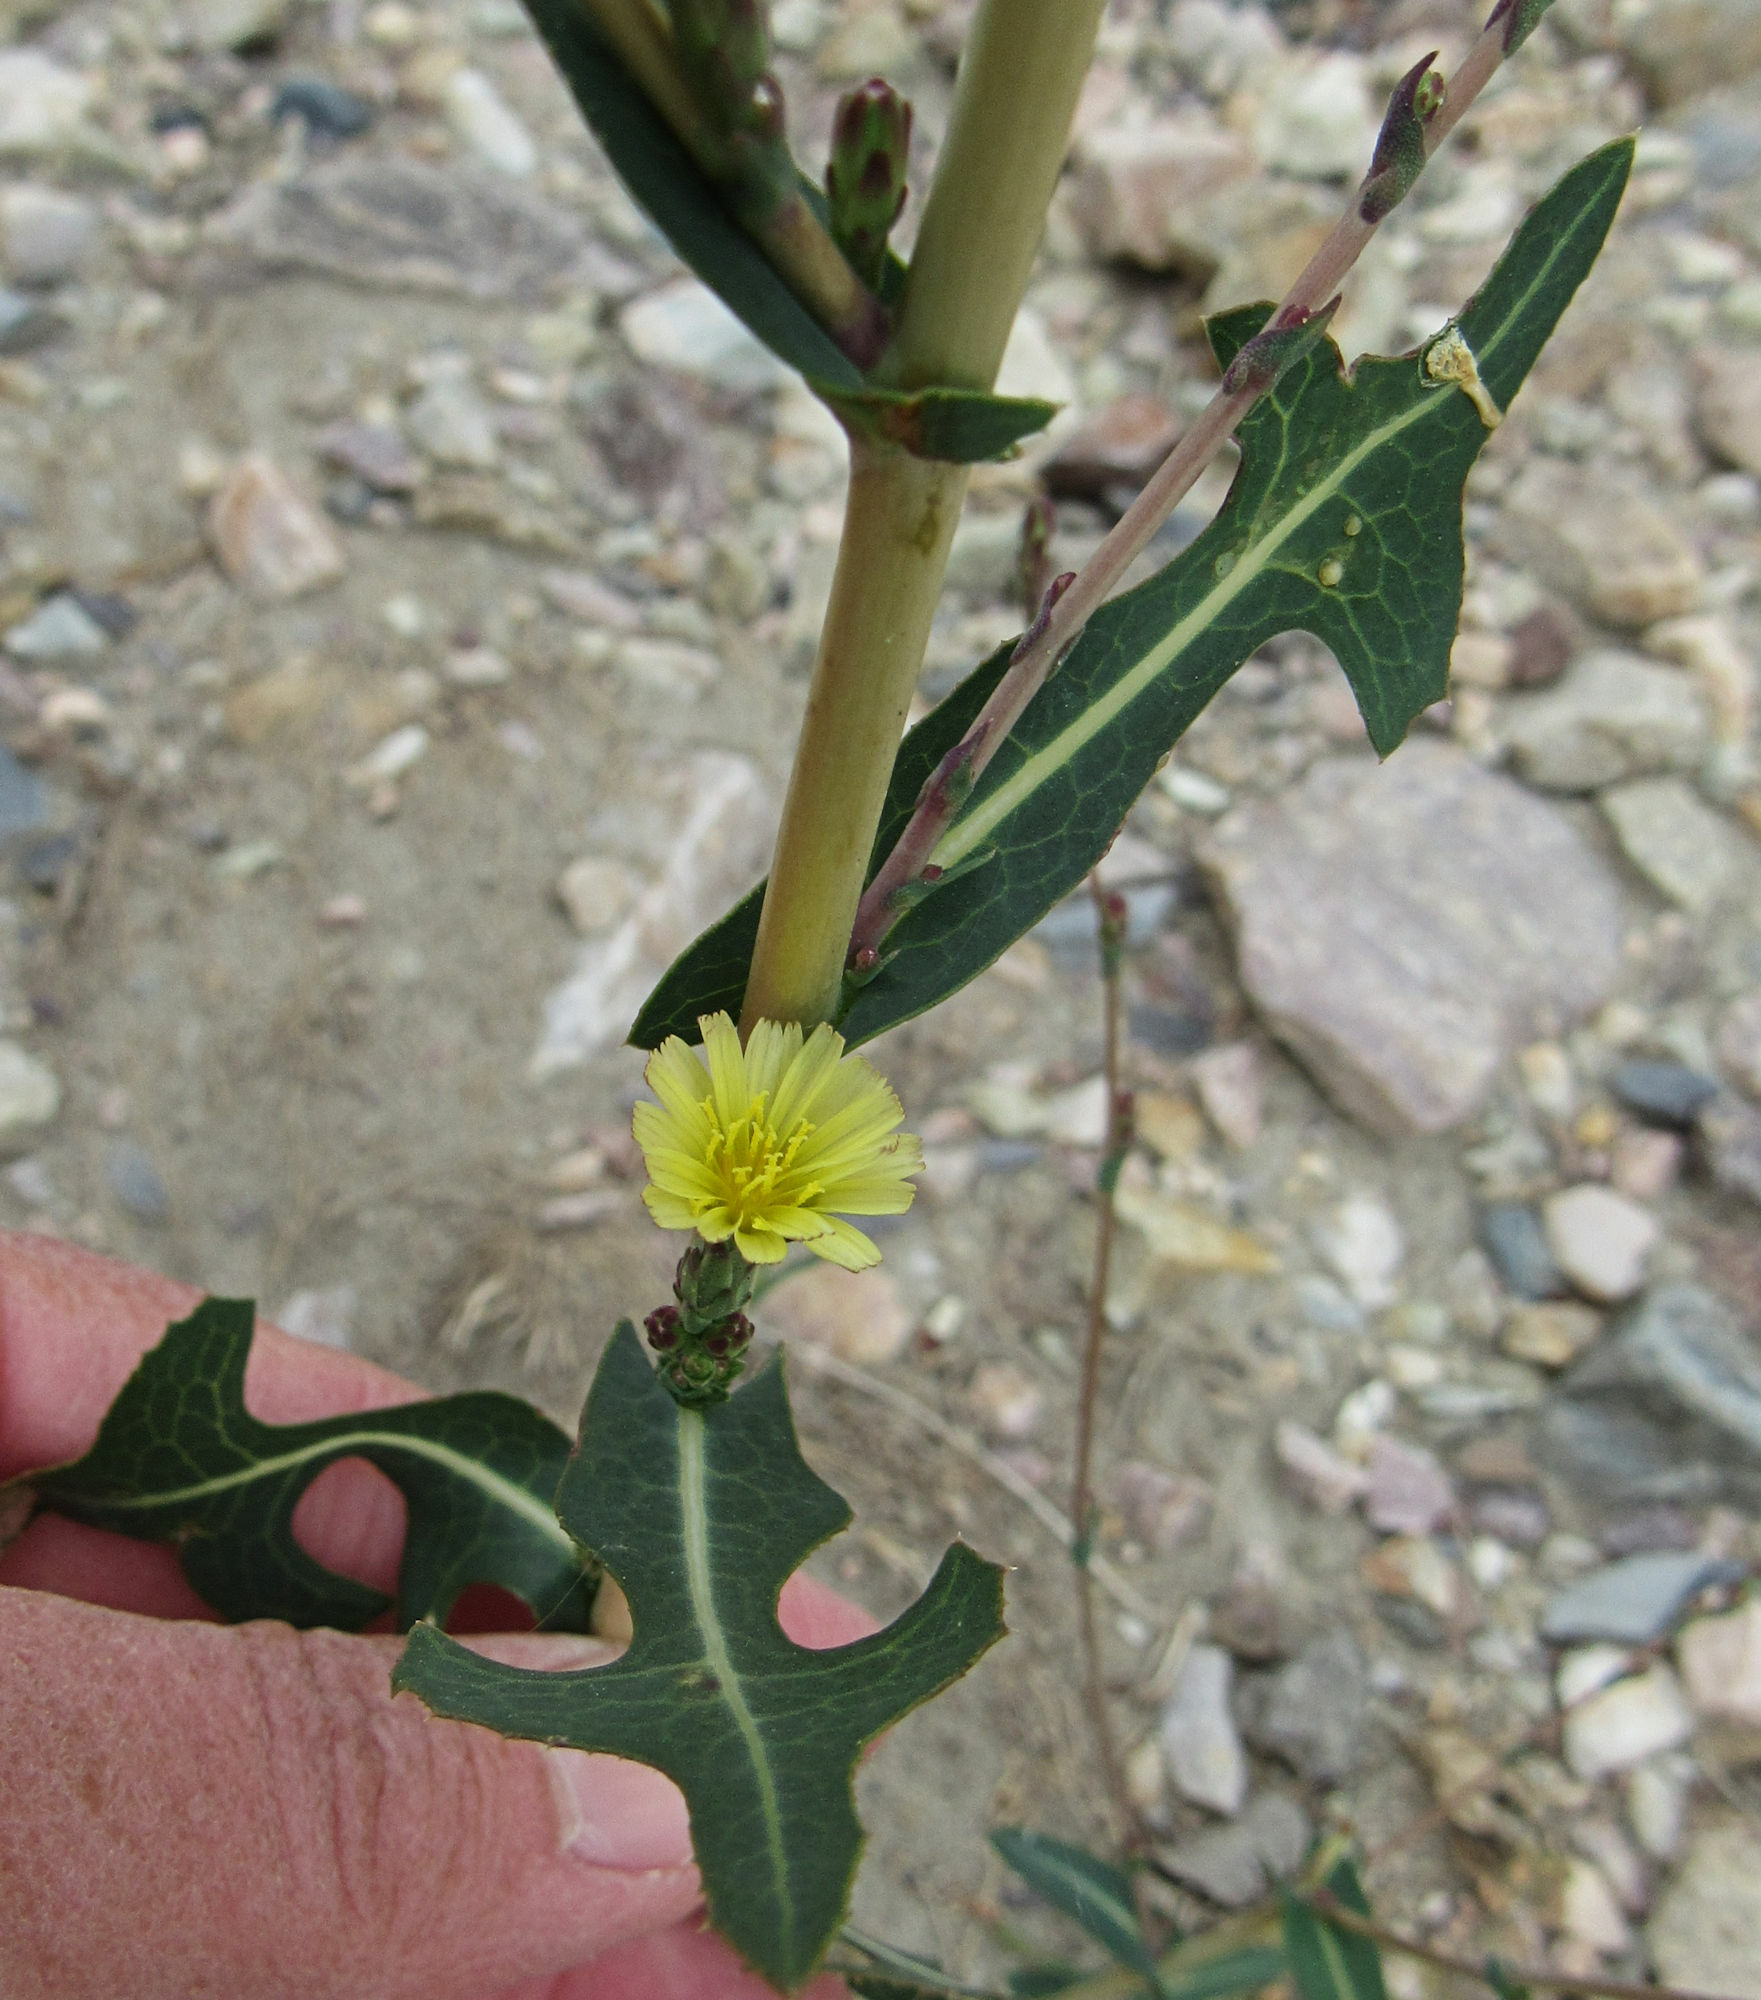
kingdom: Plantae
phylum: Tracheophyta
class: Magnoliopsida
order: Asterales
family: Asteraceae
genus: Lactuca
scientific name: Lactuca serriola
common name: Prickly lettuce
